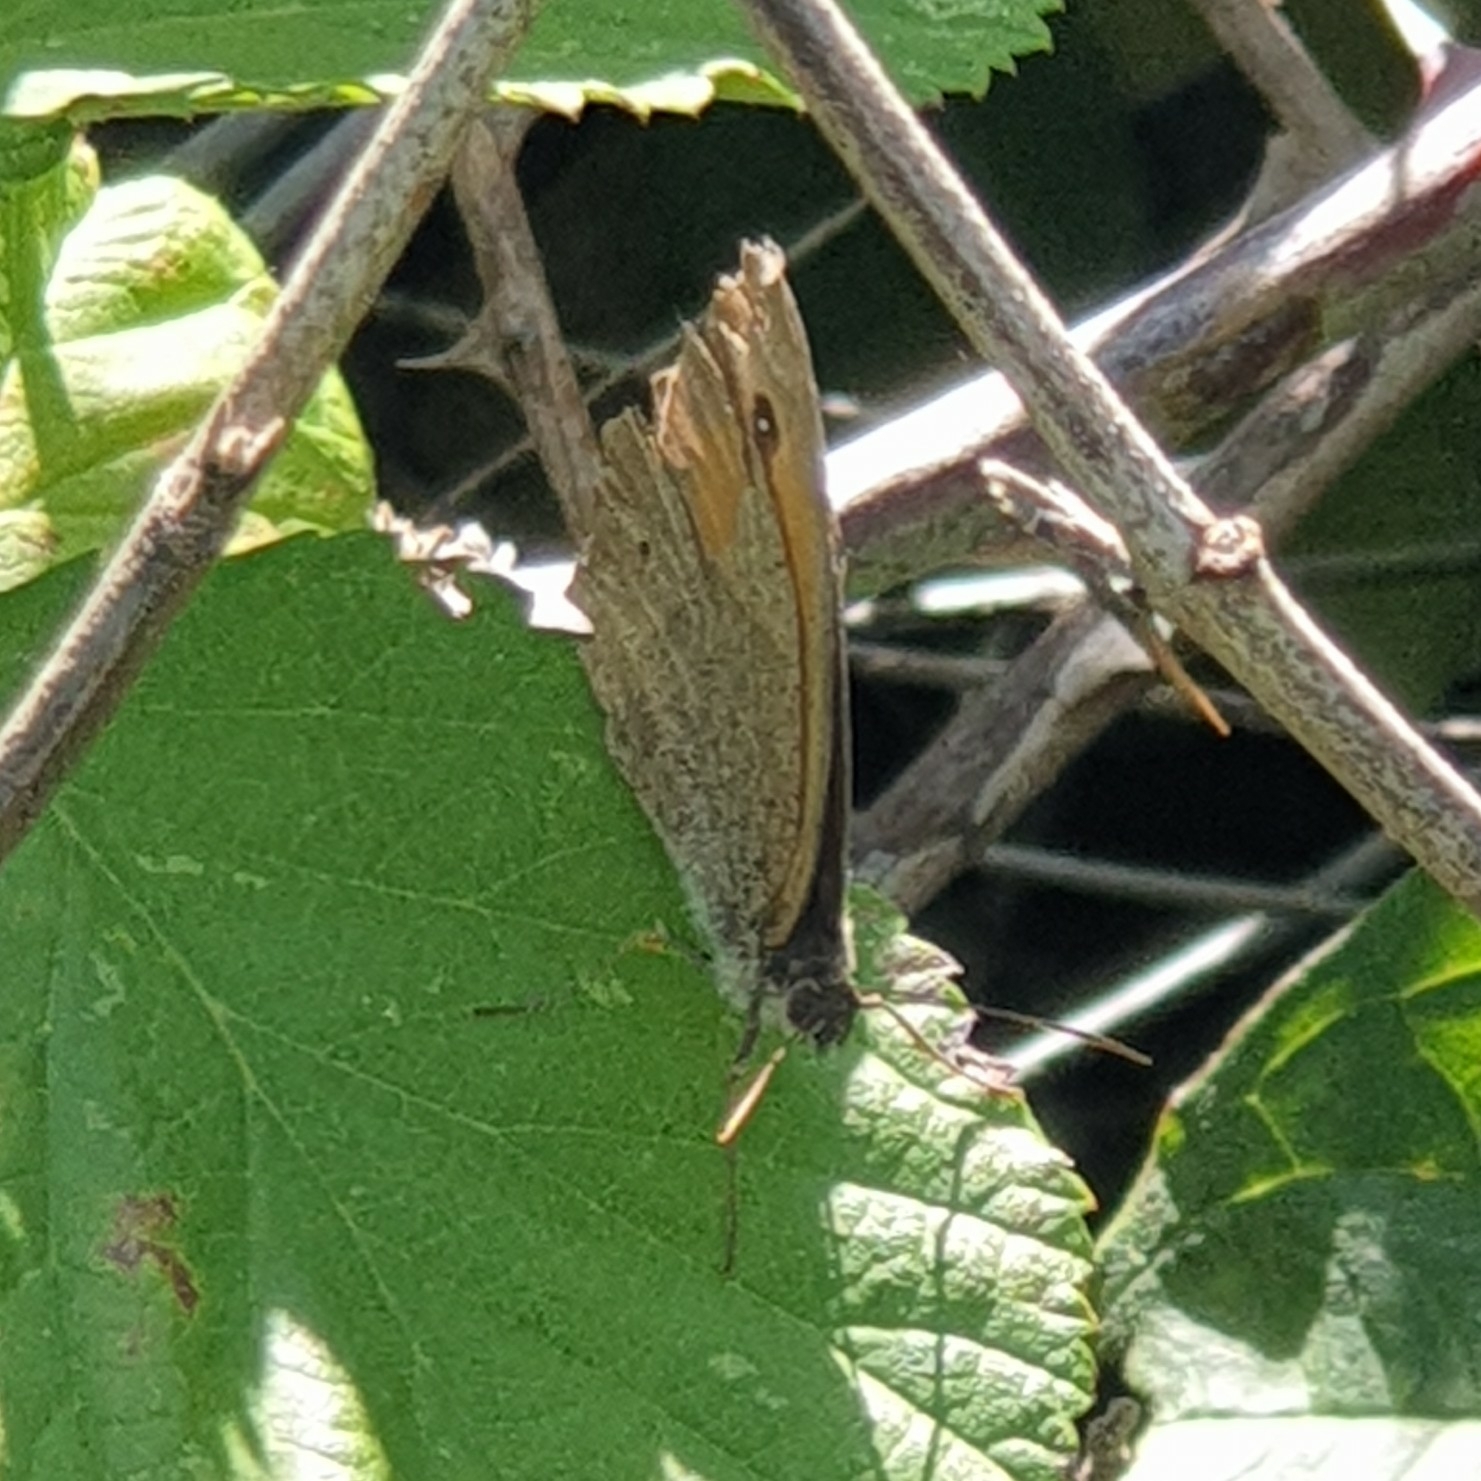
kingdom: Animalia
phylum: Arthropoda
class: Insecta
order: Lepidoptera
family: Nymphalidae
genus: Maniola
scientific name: Maniola jurtina
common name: Meadow brown
